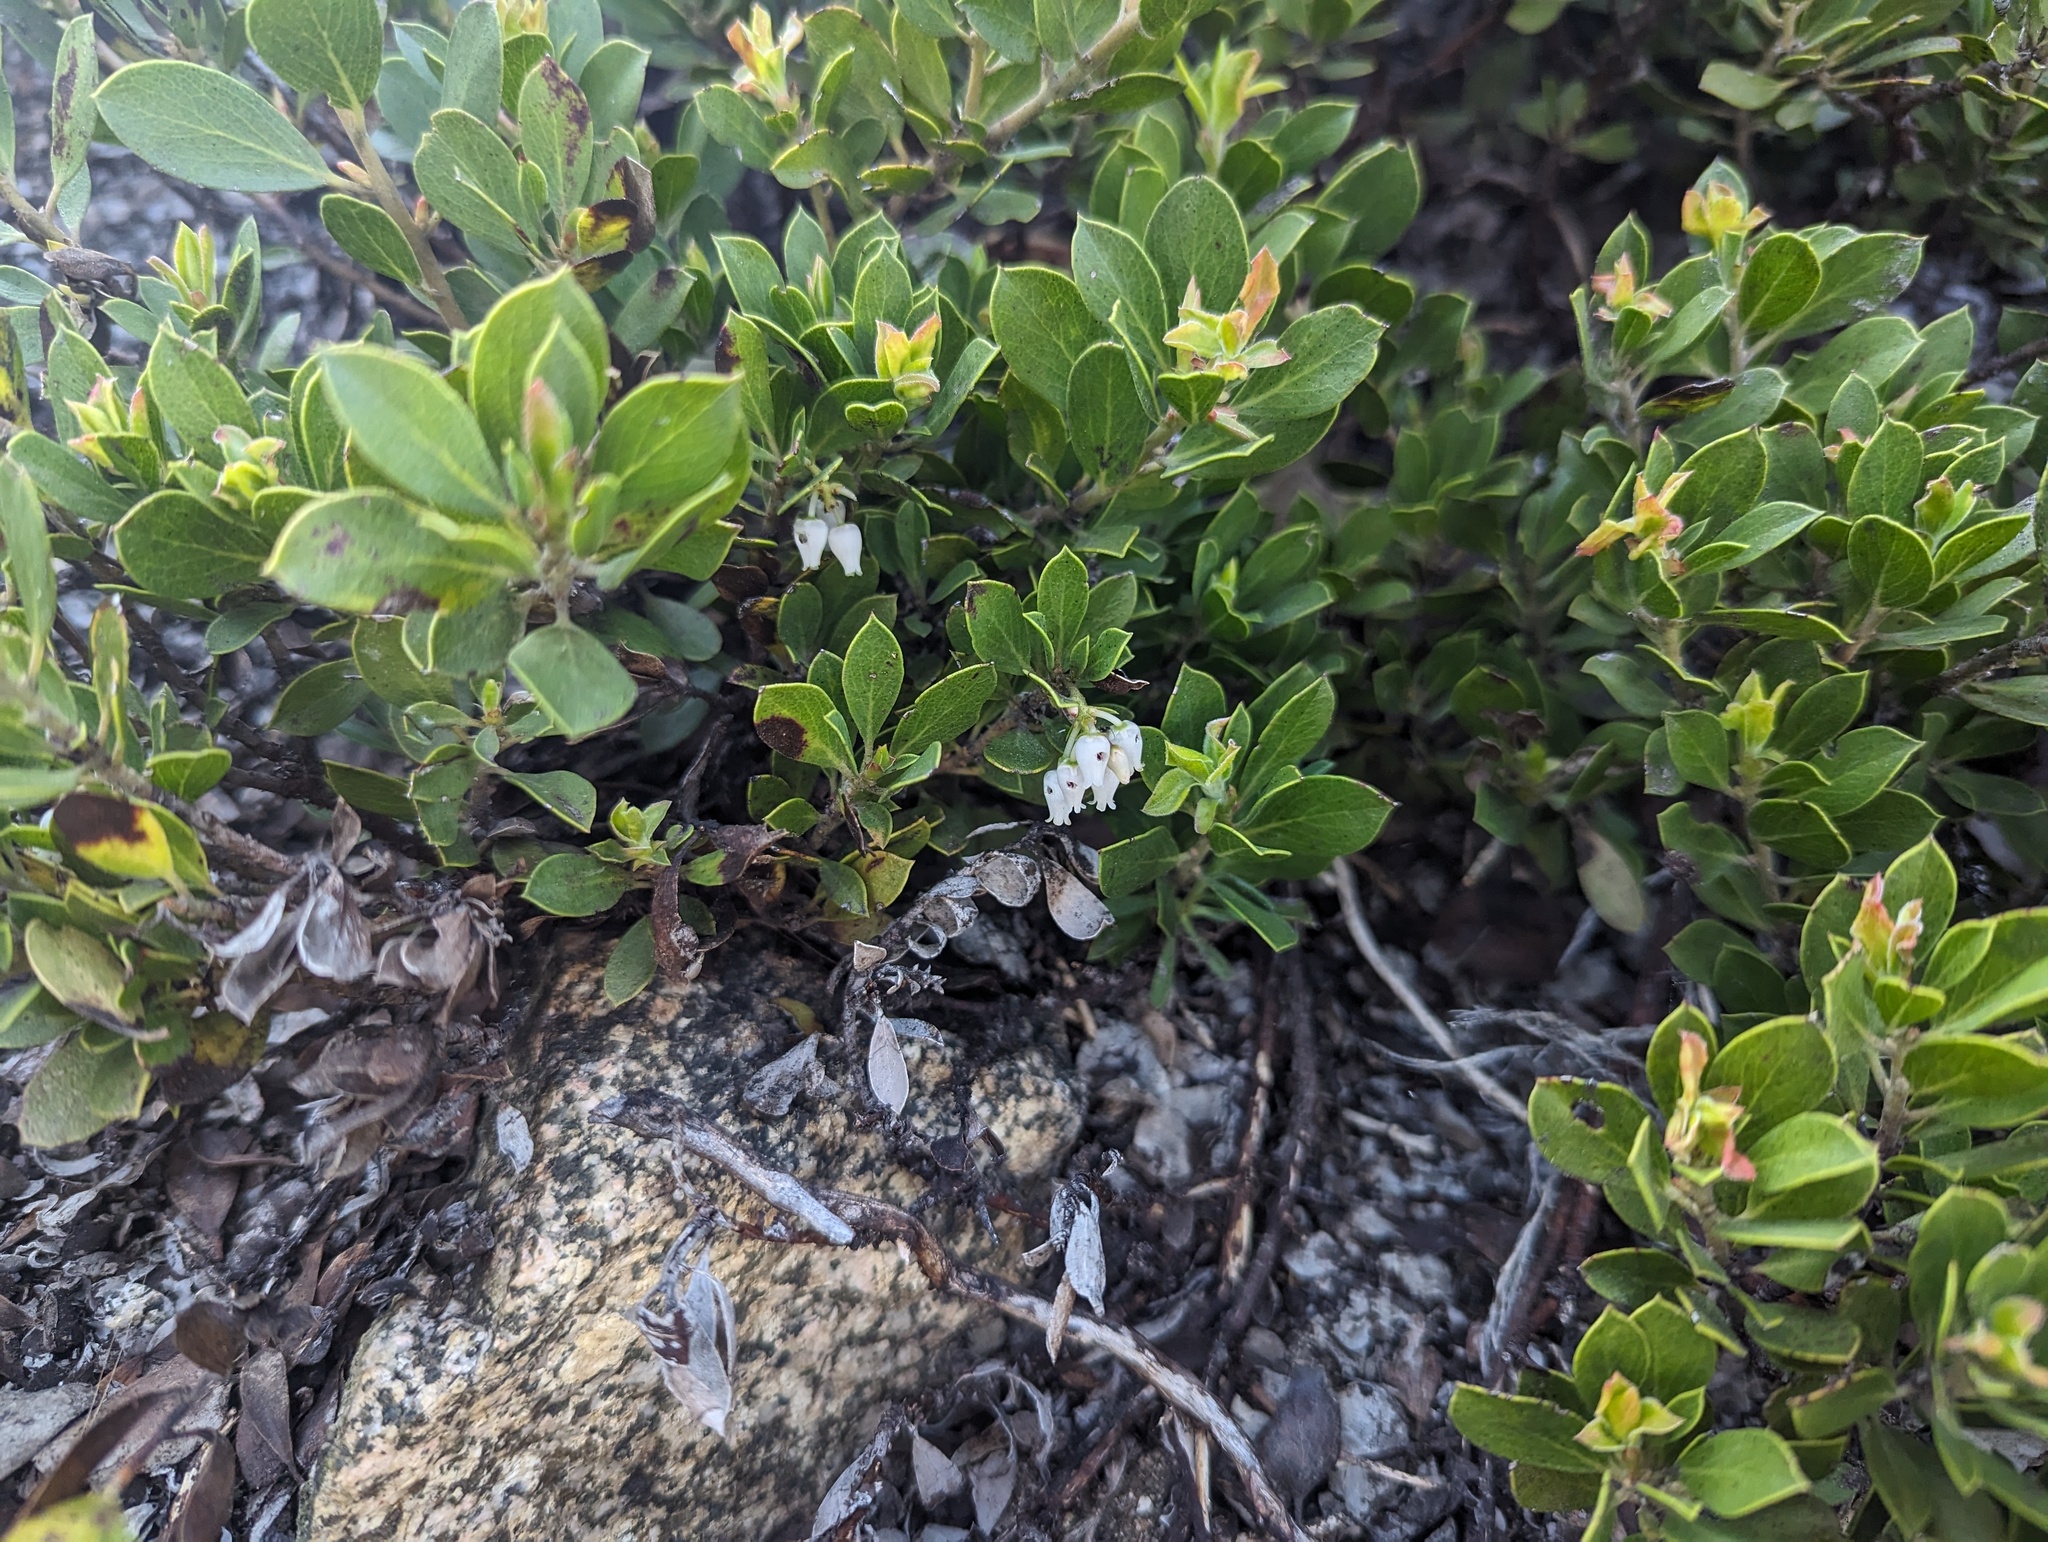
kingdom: Plantae
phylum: Tracheophyta
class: Magnoliopsida
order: Ericales
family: Ericaceae
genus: Arctostaphylos
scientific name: Arctostaphylos nevadensis
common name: Pinemat manzanita
